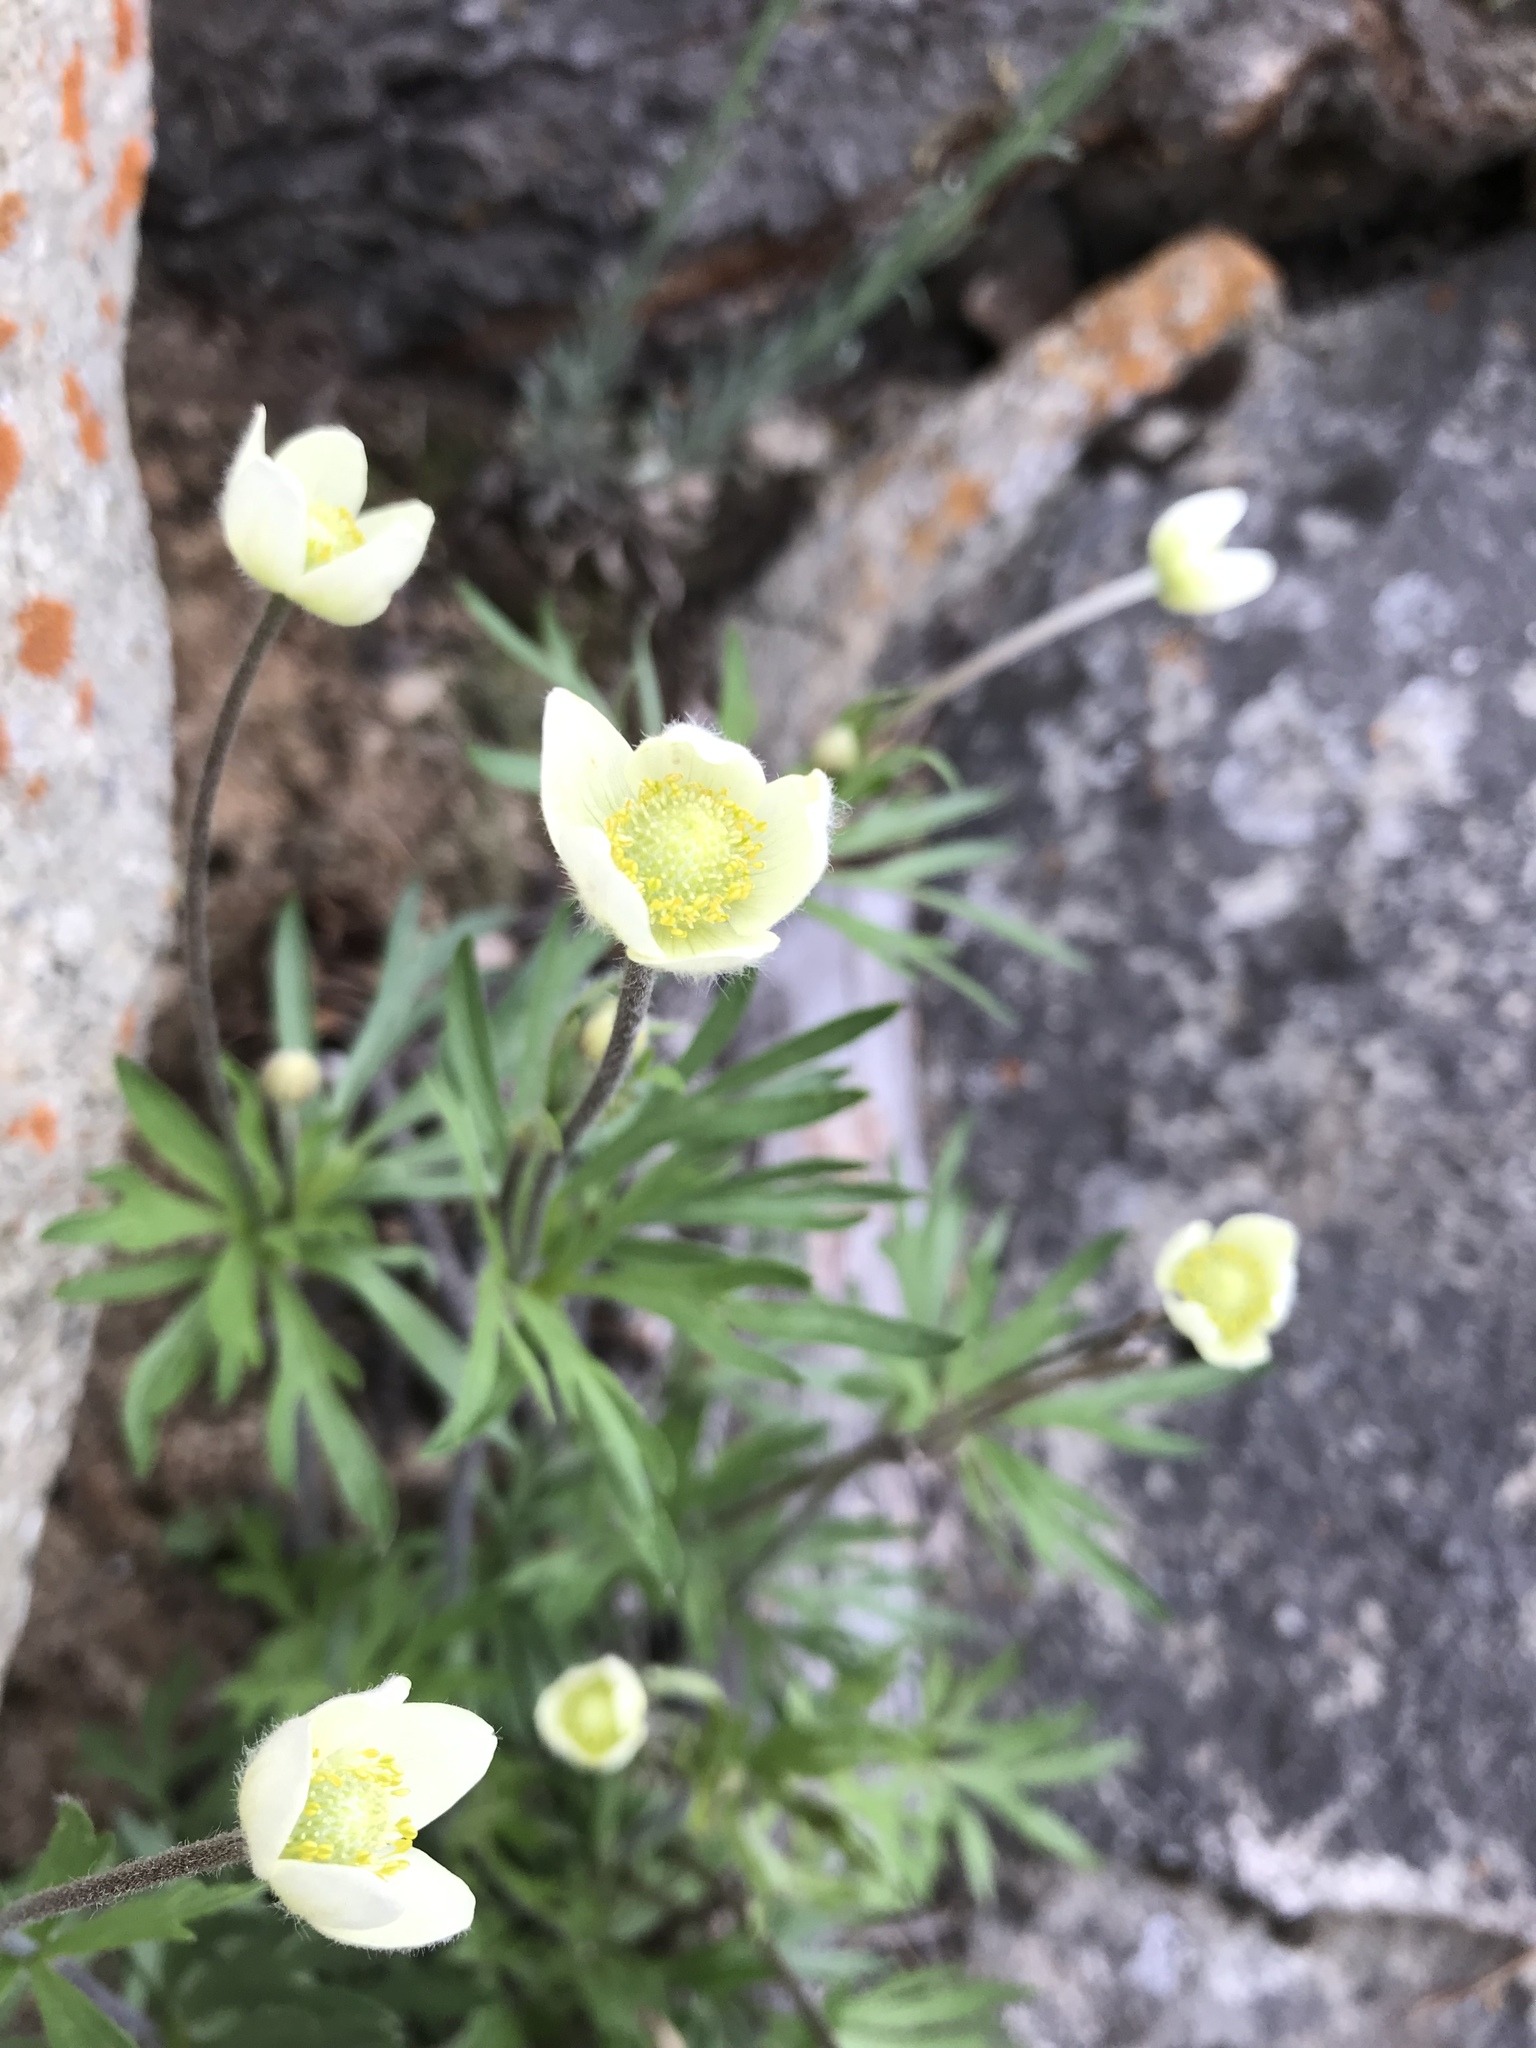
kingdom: Plantae
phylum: Tracheophyta
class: Magnoliopsida
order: Ranunculales
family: Ranunculaceae
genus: Anemone
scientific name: Anemone multifida
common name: Bird's-foot anemone
